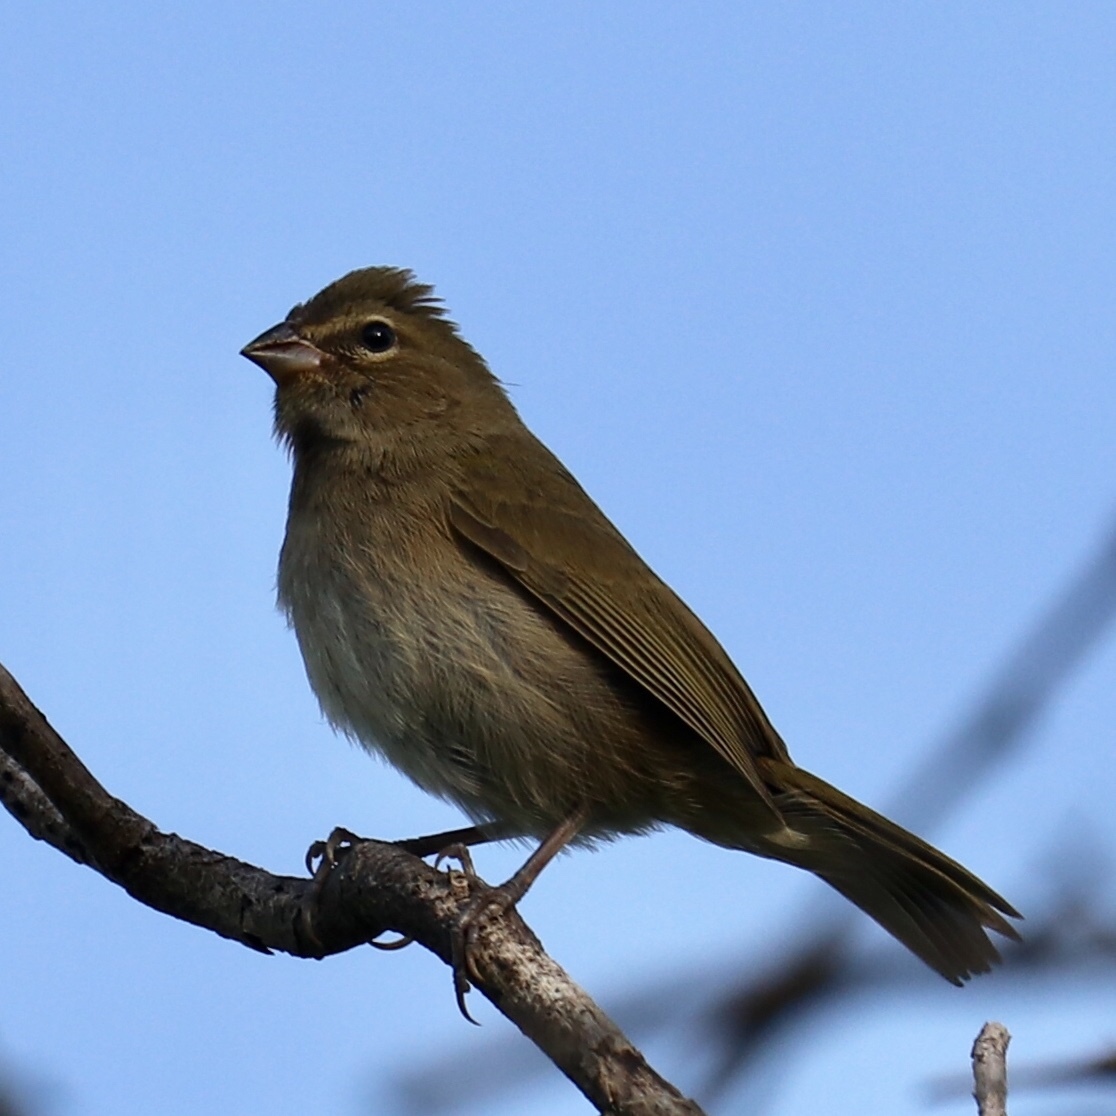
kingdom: Animalia
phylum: Chordata
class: Aves
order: Passeriformes
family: Thraupidae
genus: Tiaris
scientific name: Tiaris olivaceus
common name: Yellow-faced grassquit
